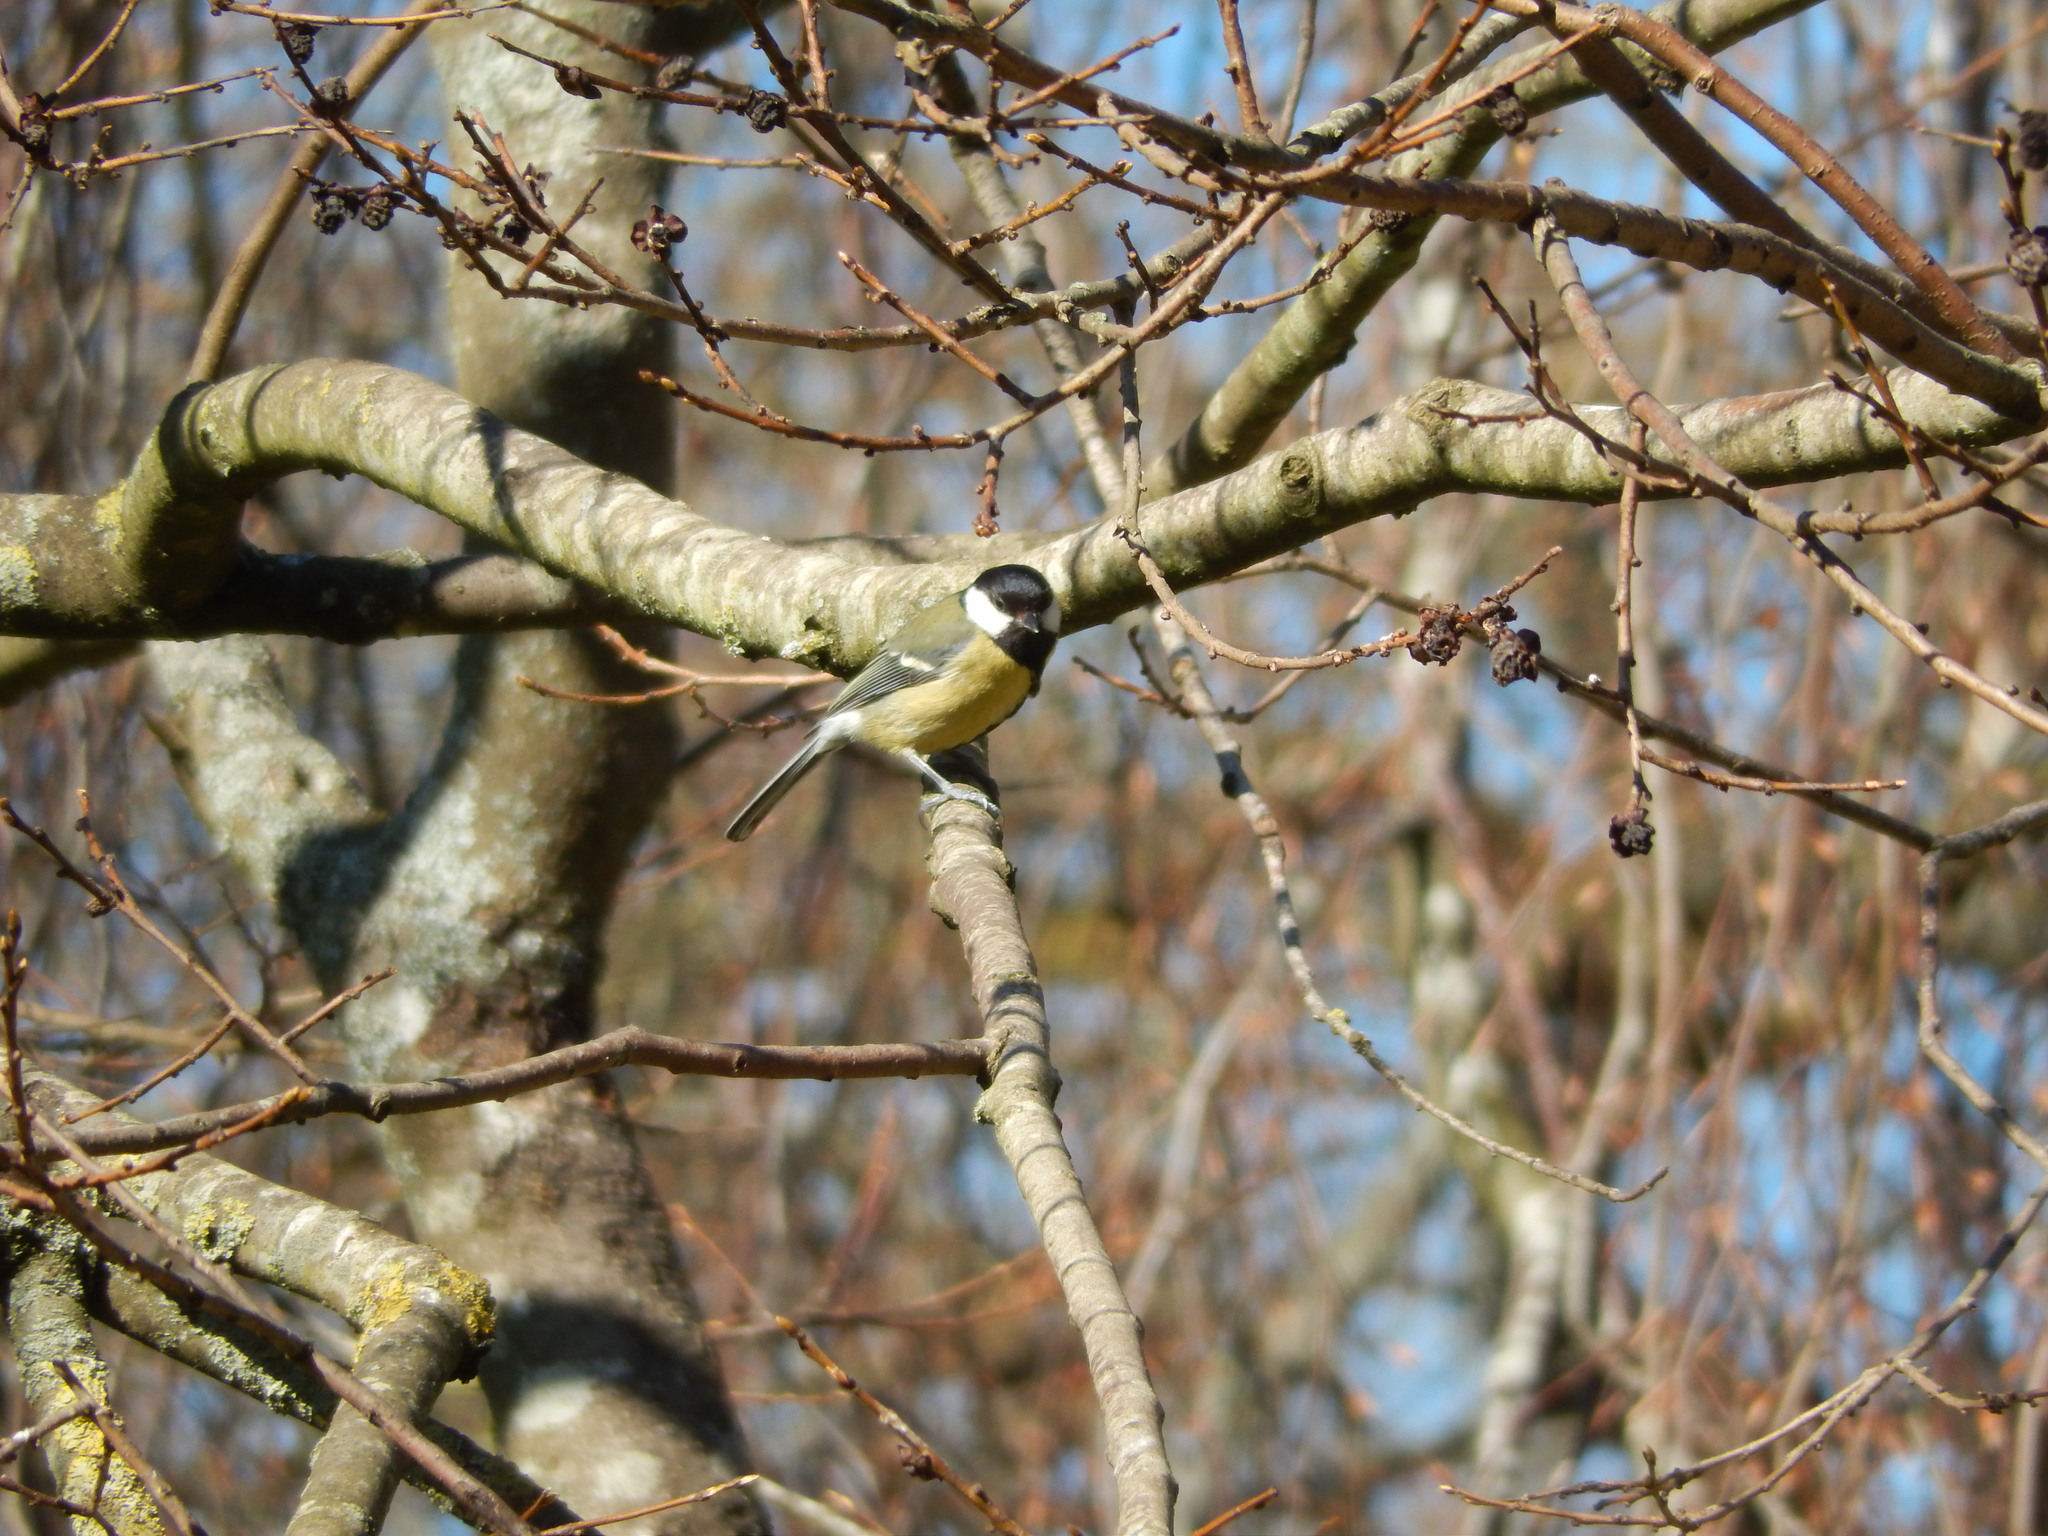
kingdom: Animalia
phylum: Chordata
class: Aves
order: Passeriformes
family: Paridae
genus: Parus
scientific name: Parus major
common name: Great tit
